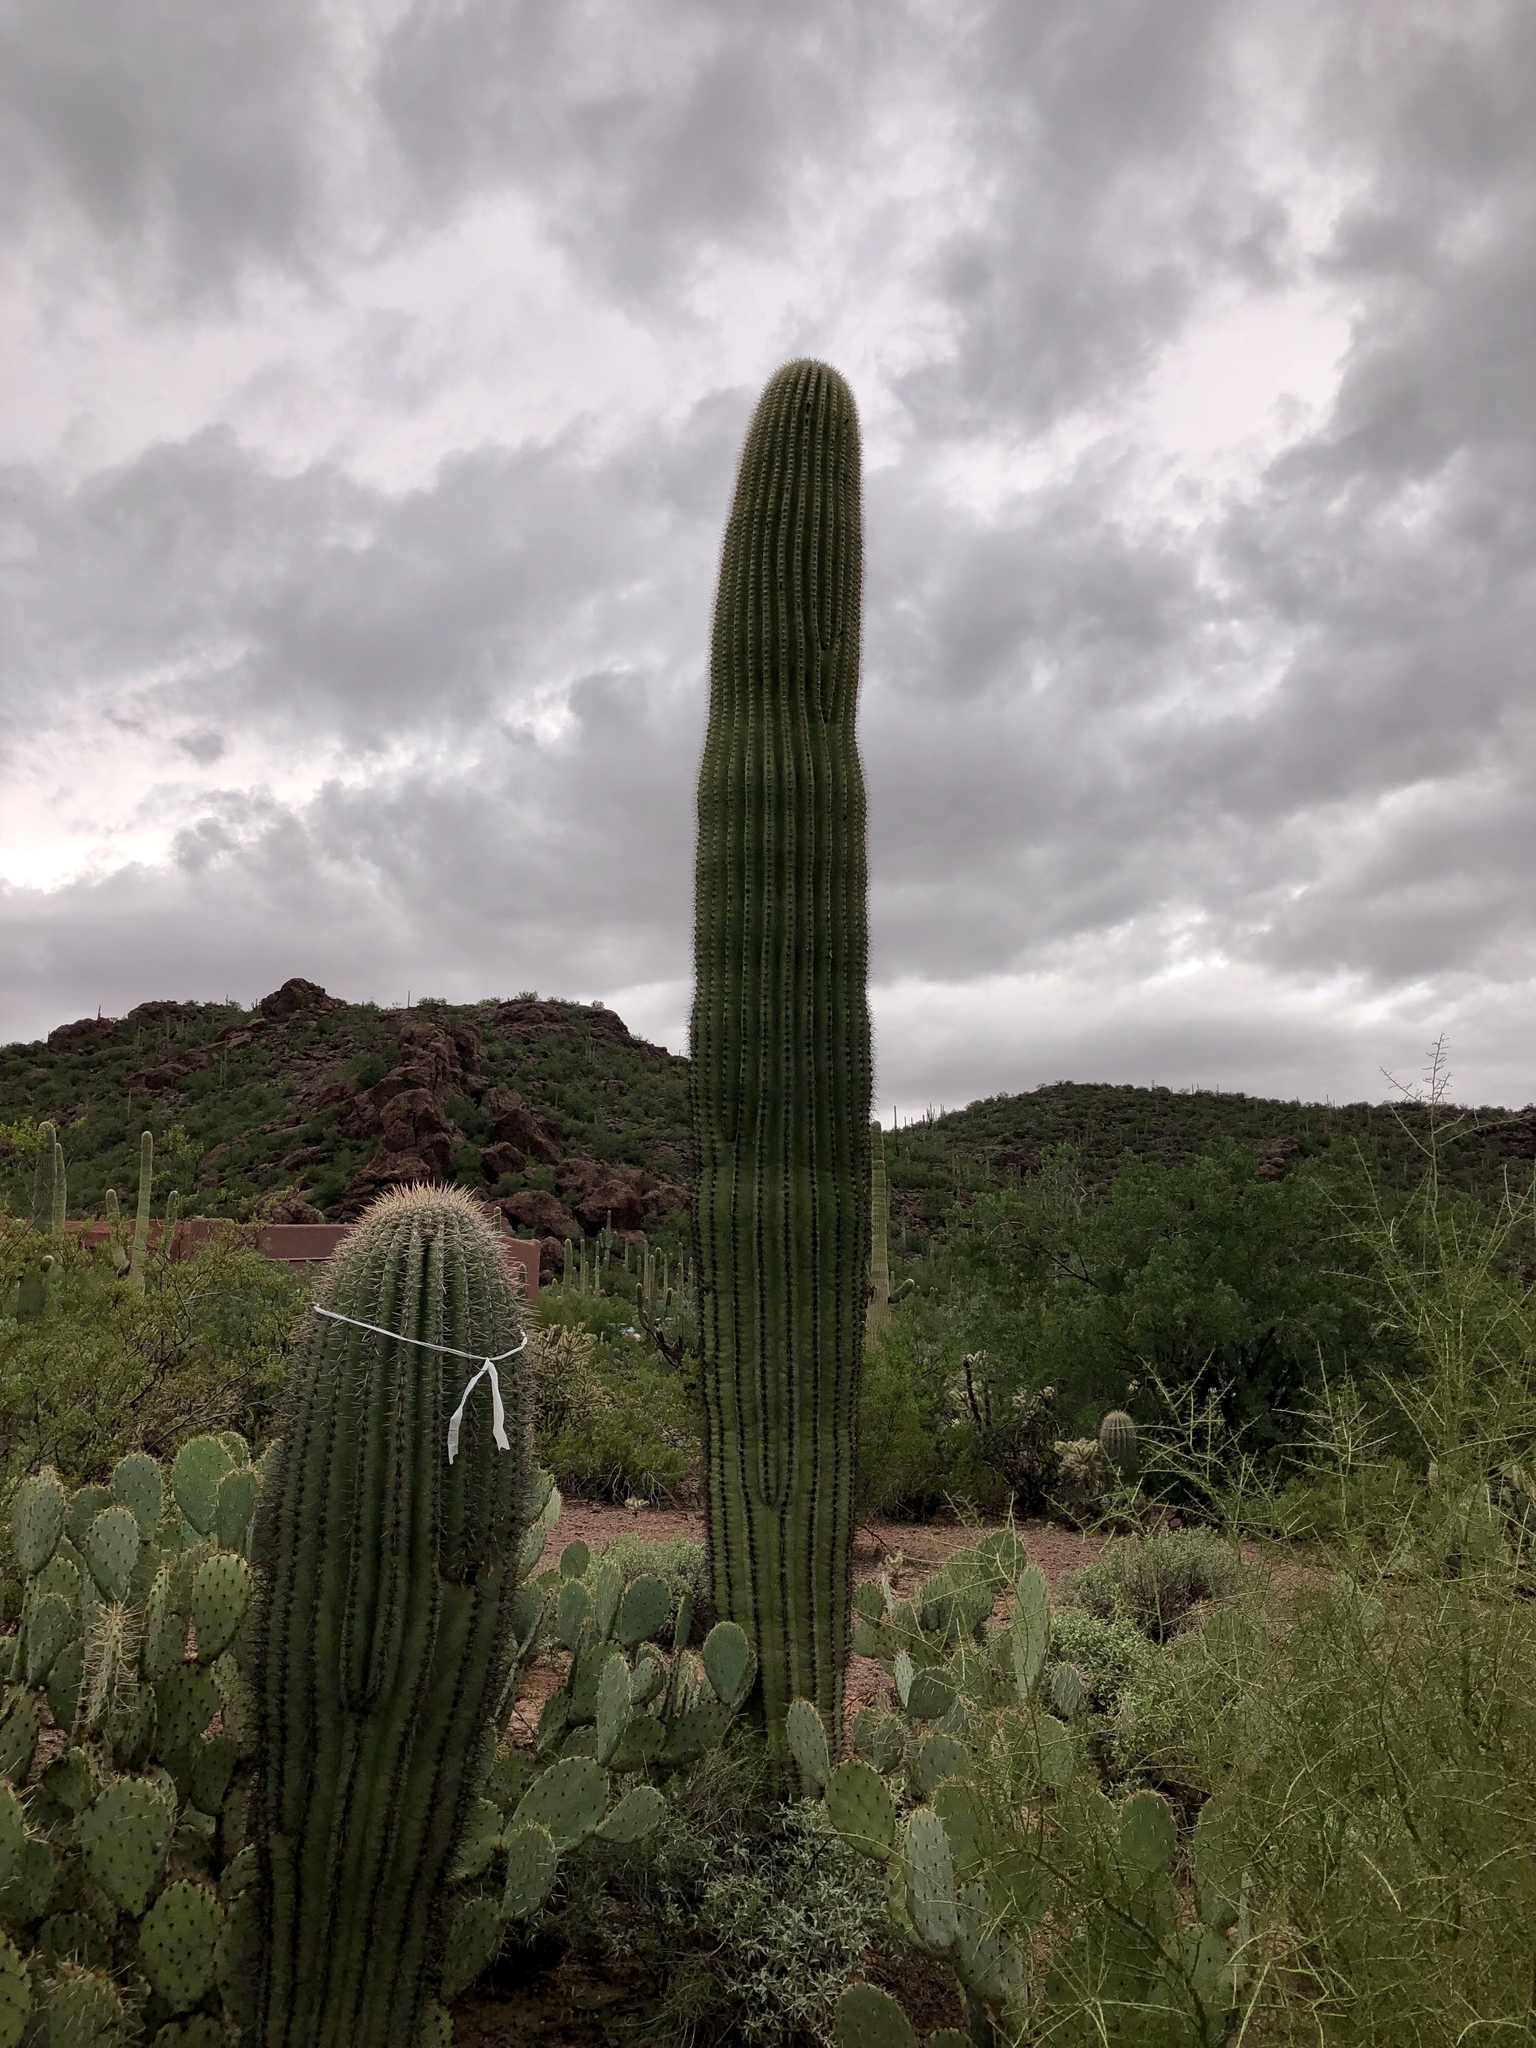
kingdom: Plantae
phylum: Tracheophyta
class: Magnoliopsida
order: Caryophyllales
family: Cactaceae
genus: Carnegiea
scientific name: Carnegiea gigantea
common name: Saguaro
